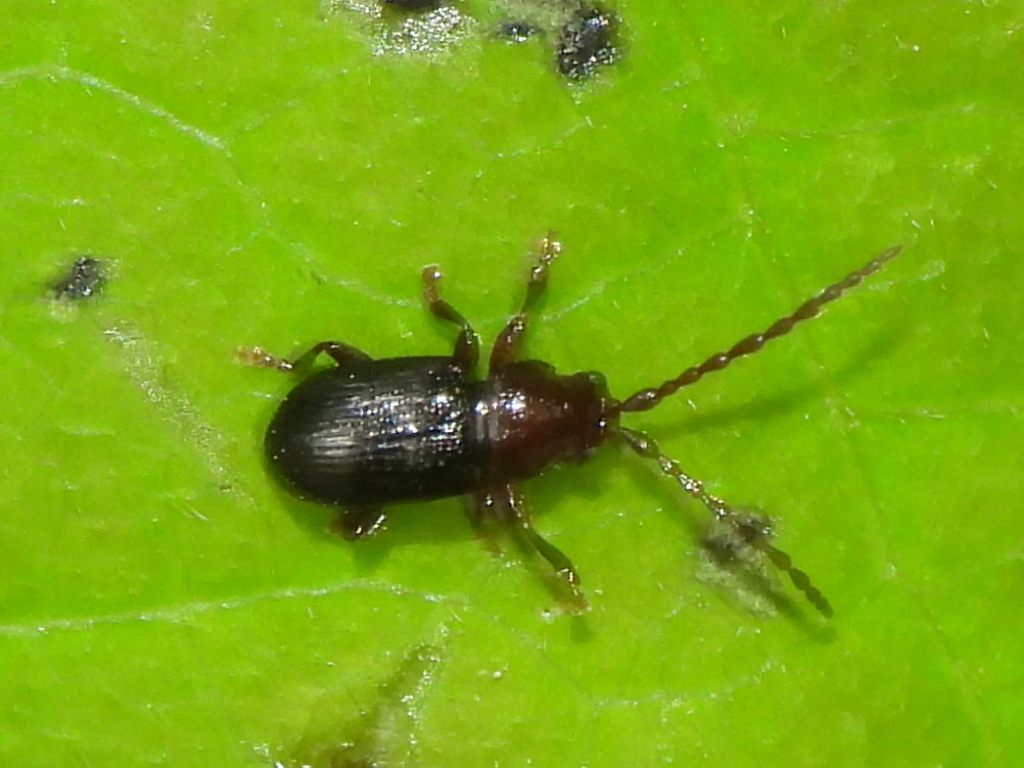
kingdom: Animalia
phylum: Arthropoda
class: Insecta
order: Coleoptera
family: Chrysomelidae
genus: Aulacothorax
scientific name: Aulacothorax
